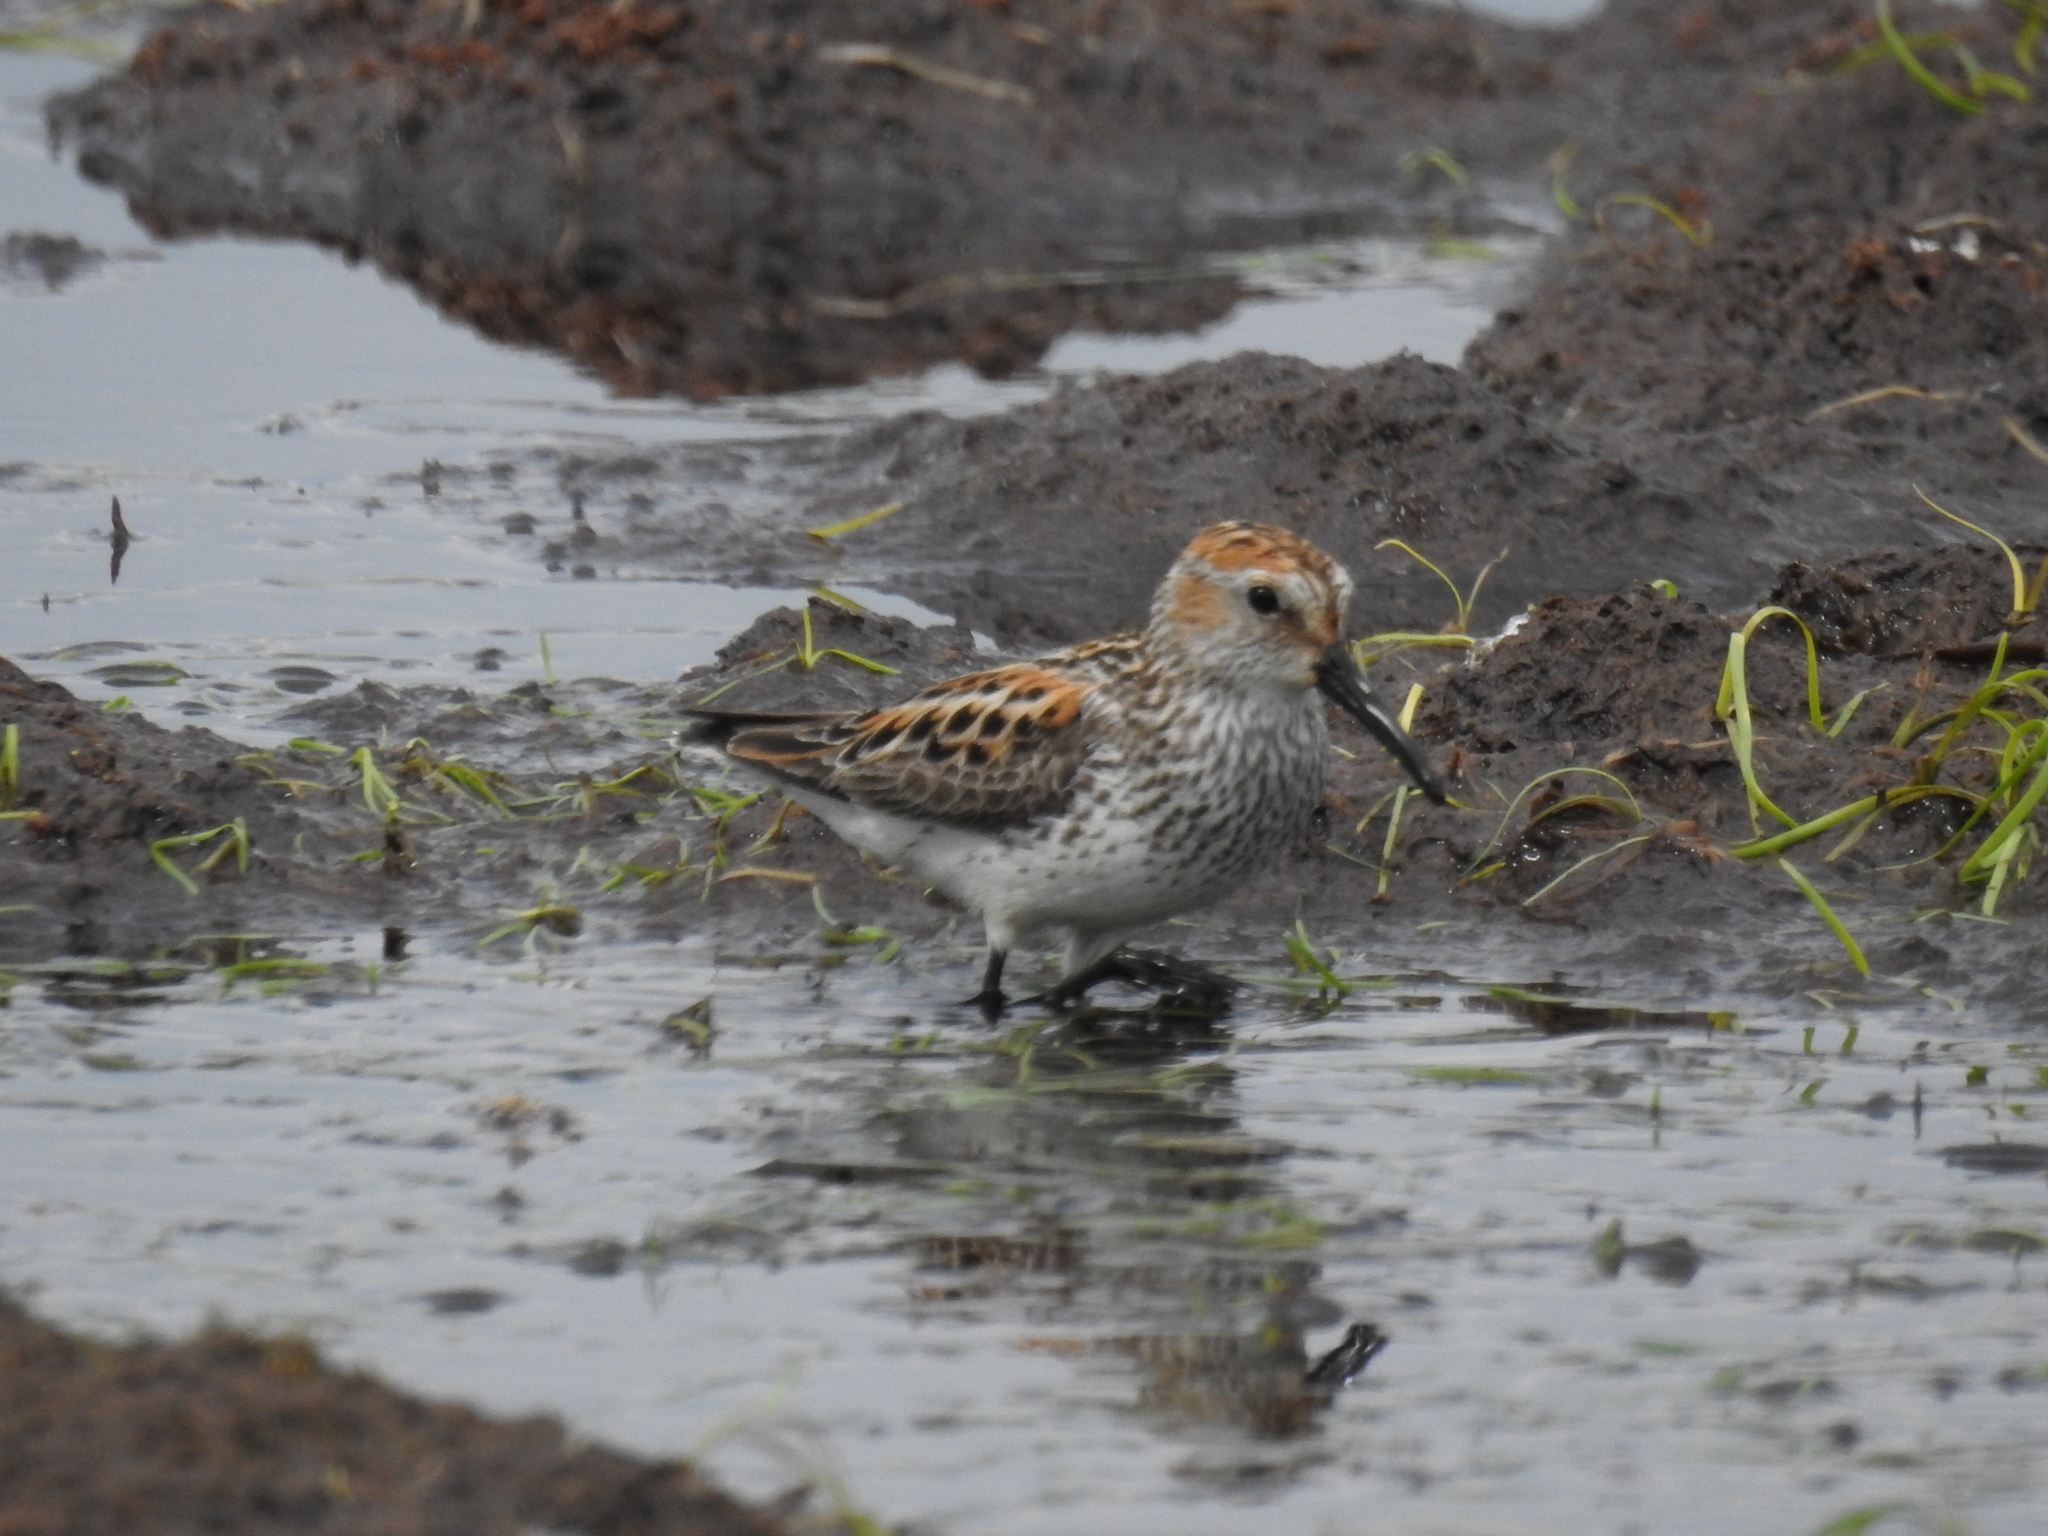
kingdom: Animalia
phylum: Chordata
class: Aves
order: Charadriiformes
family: Scolopacidae
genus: Calidris
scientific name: Calidris mauri
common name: Western sandpiper
